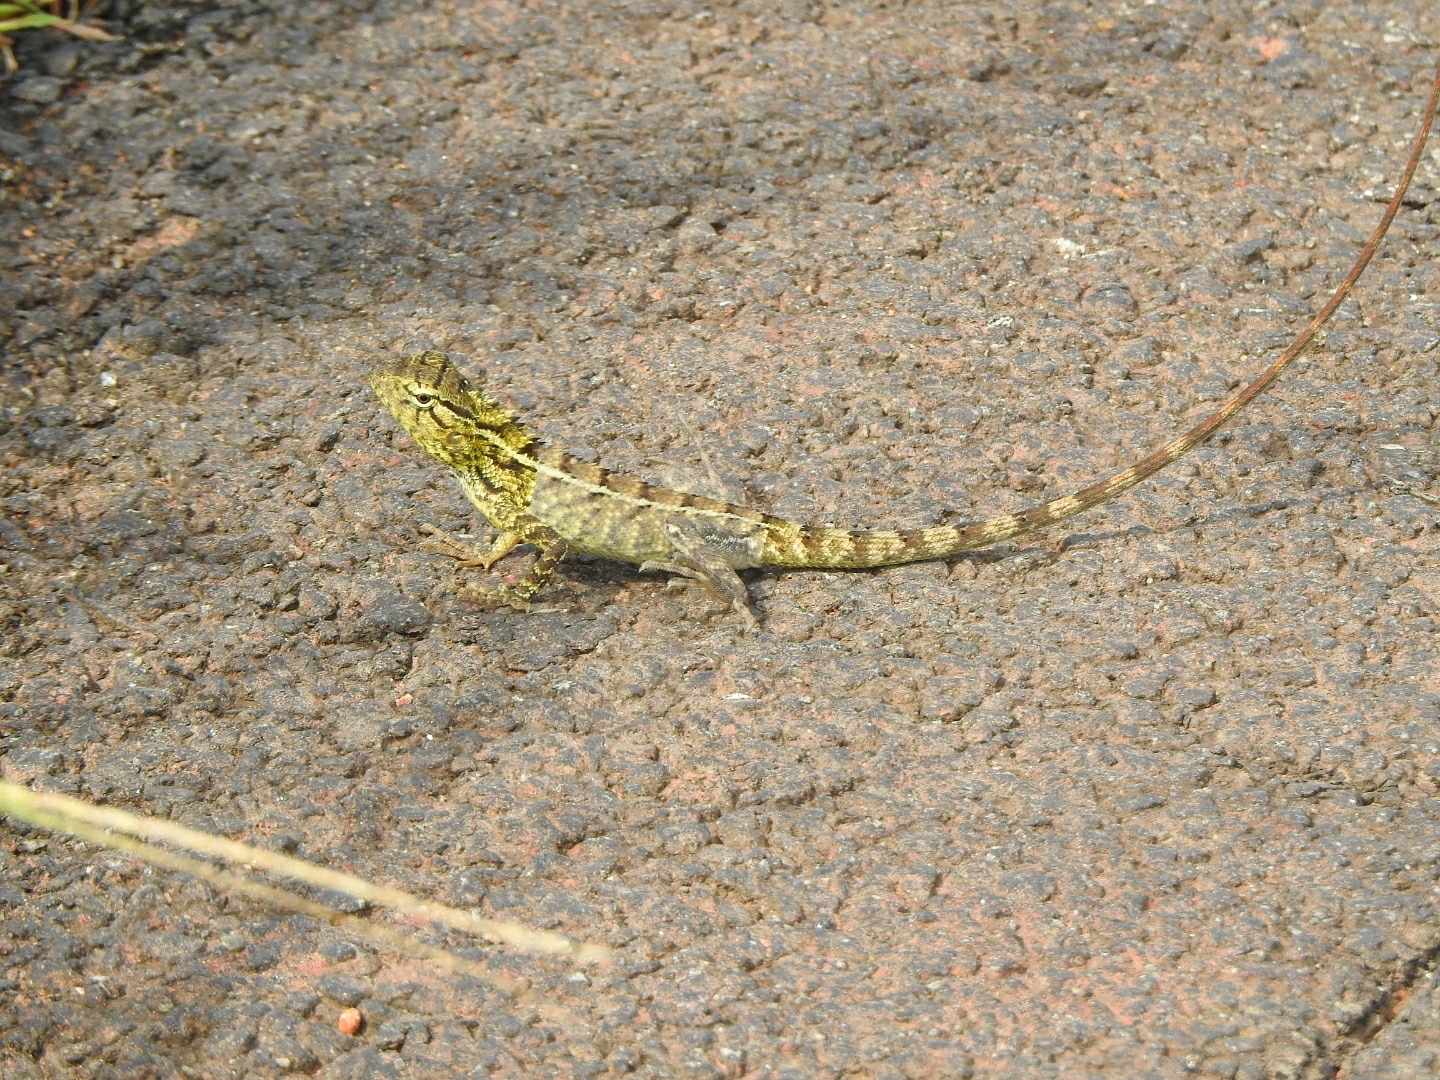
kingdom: Animalia
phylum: Chordata
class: Squamata
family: Agamidae
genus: Calotes
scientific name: Calotes versicolor
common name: Oriental garden lizard
